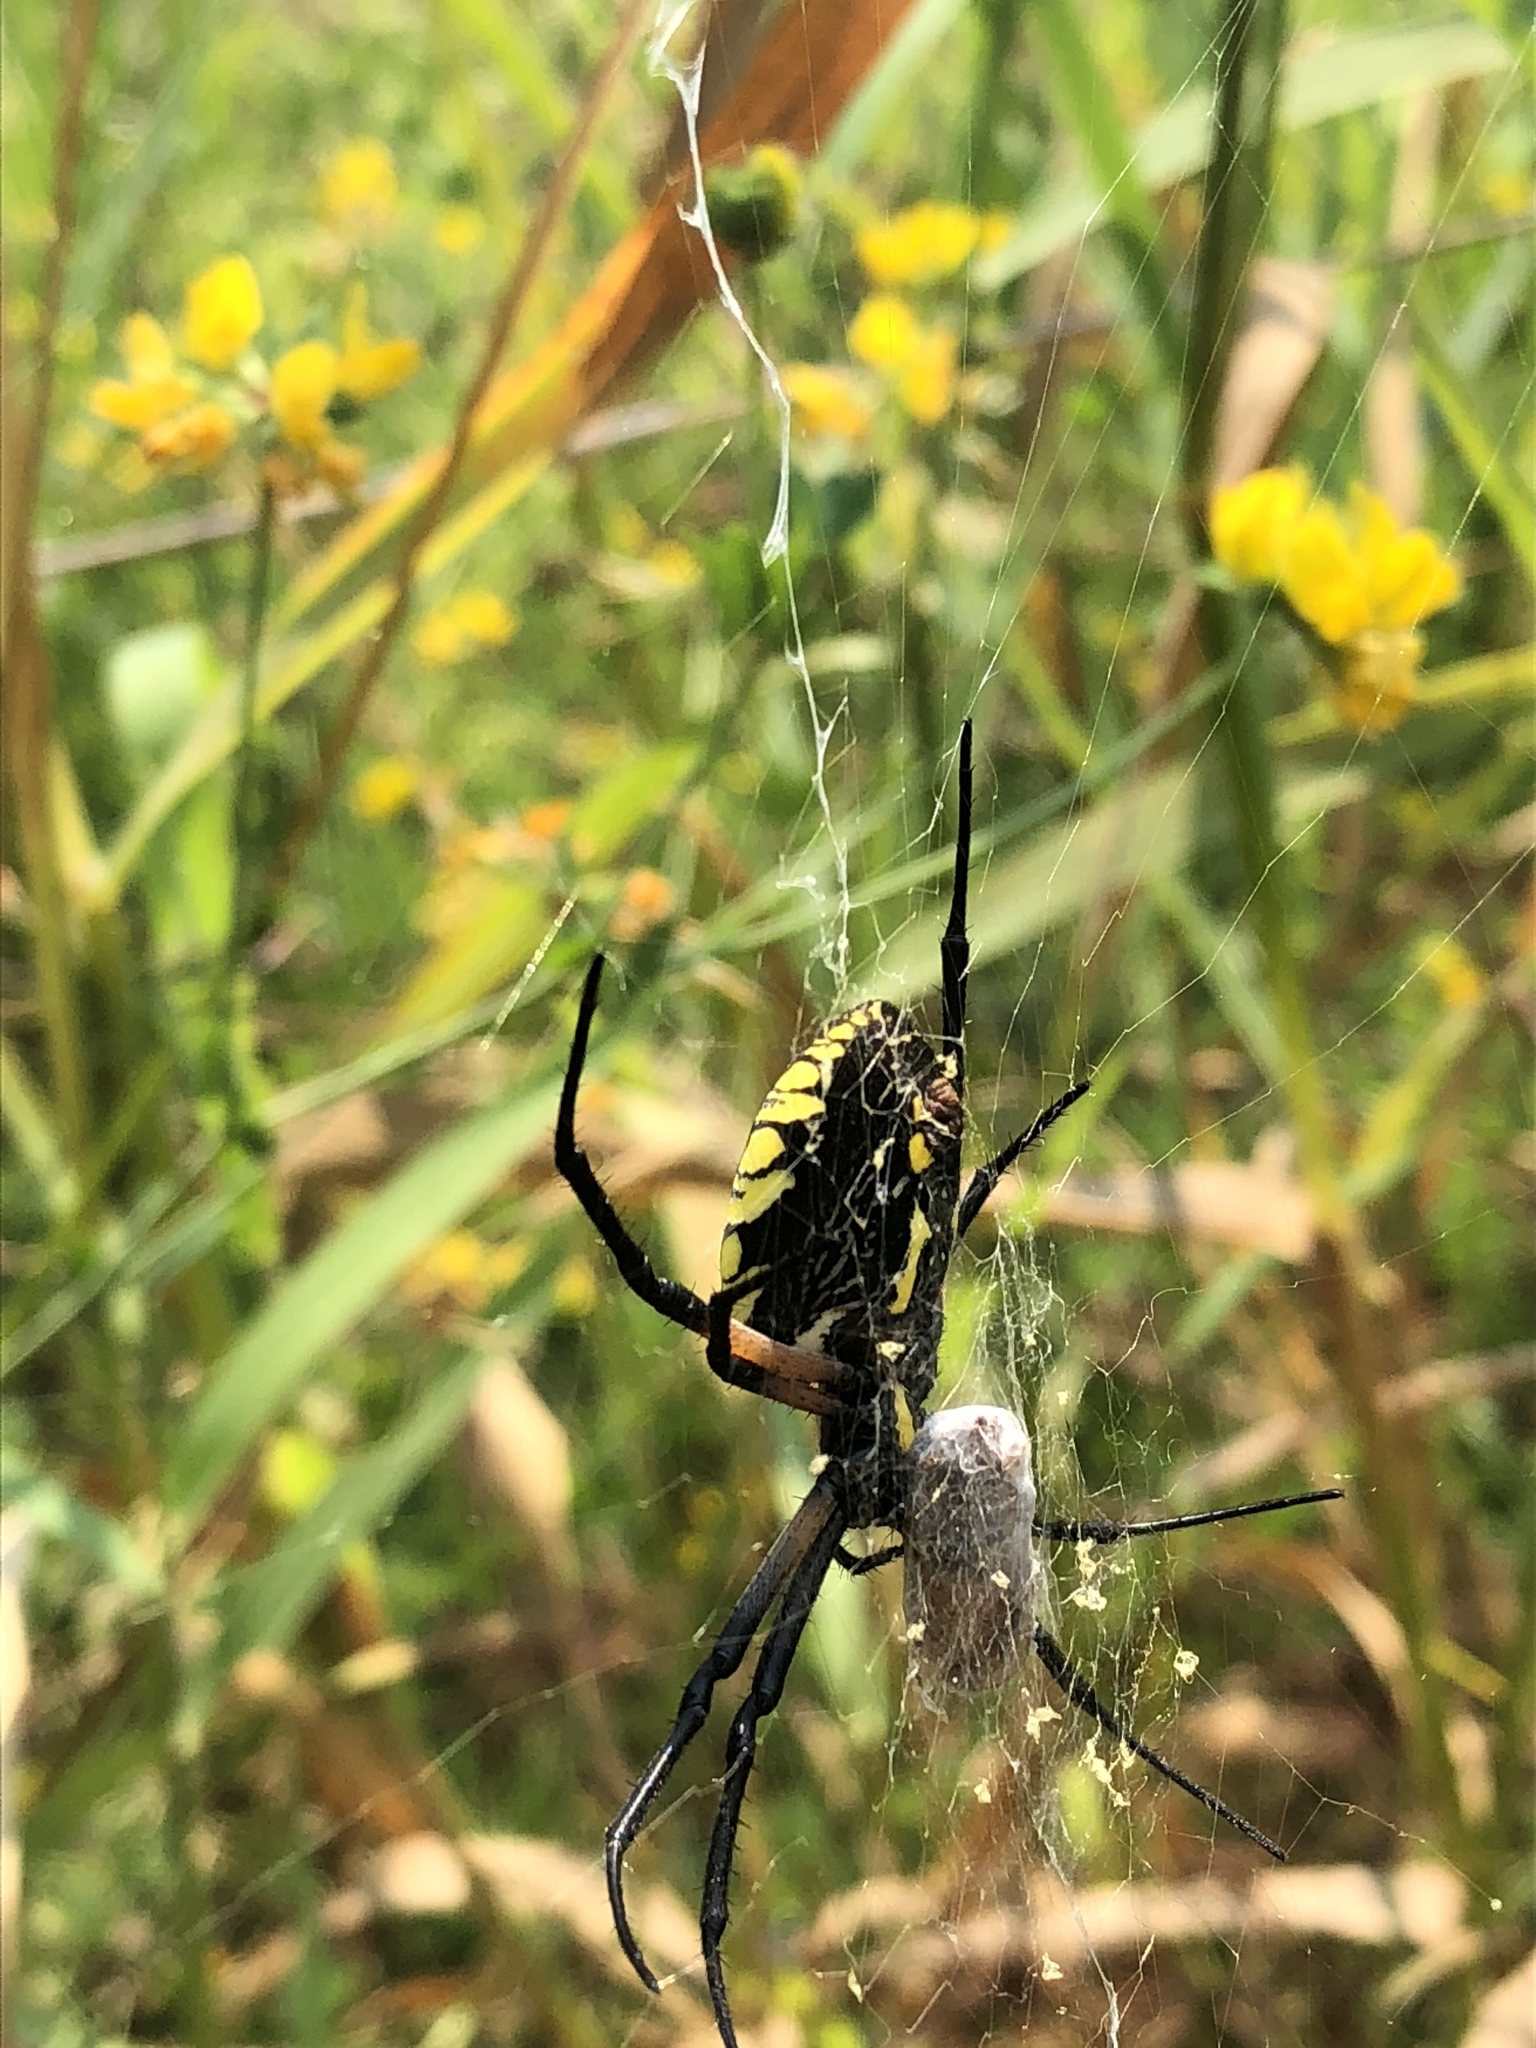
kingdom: Animalia
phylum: Arthropoda
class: Arachnida
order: Araneae
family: Araneidae
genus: Argiope
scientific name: Argiope aurantia
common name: Orb weavers
